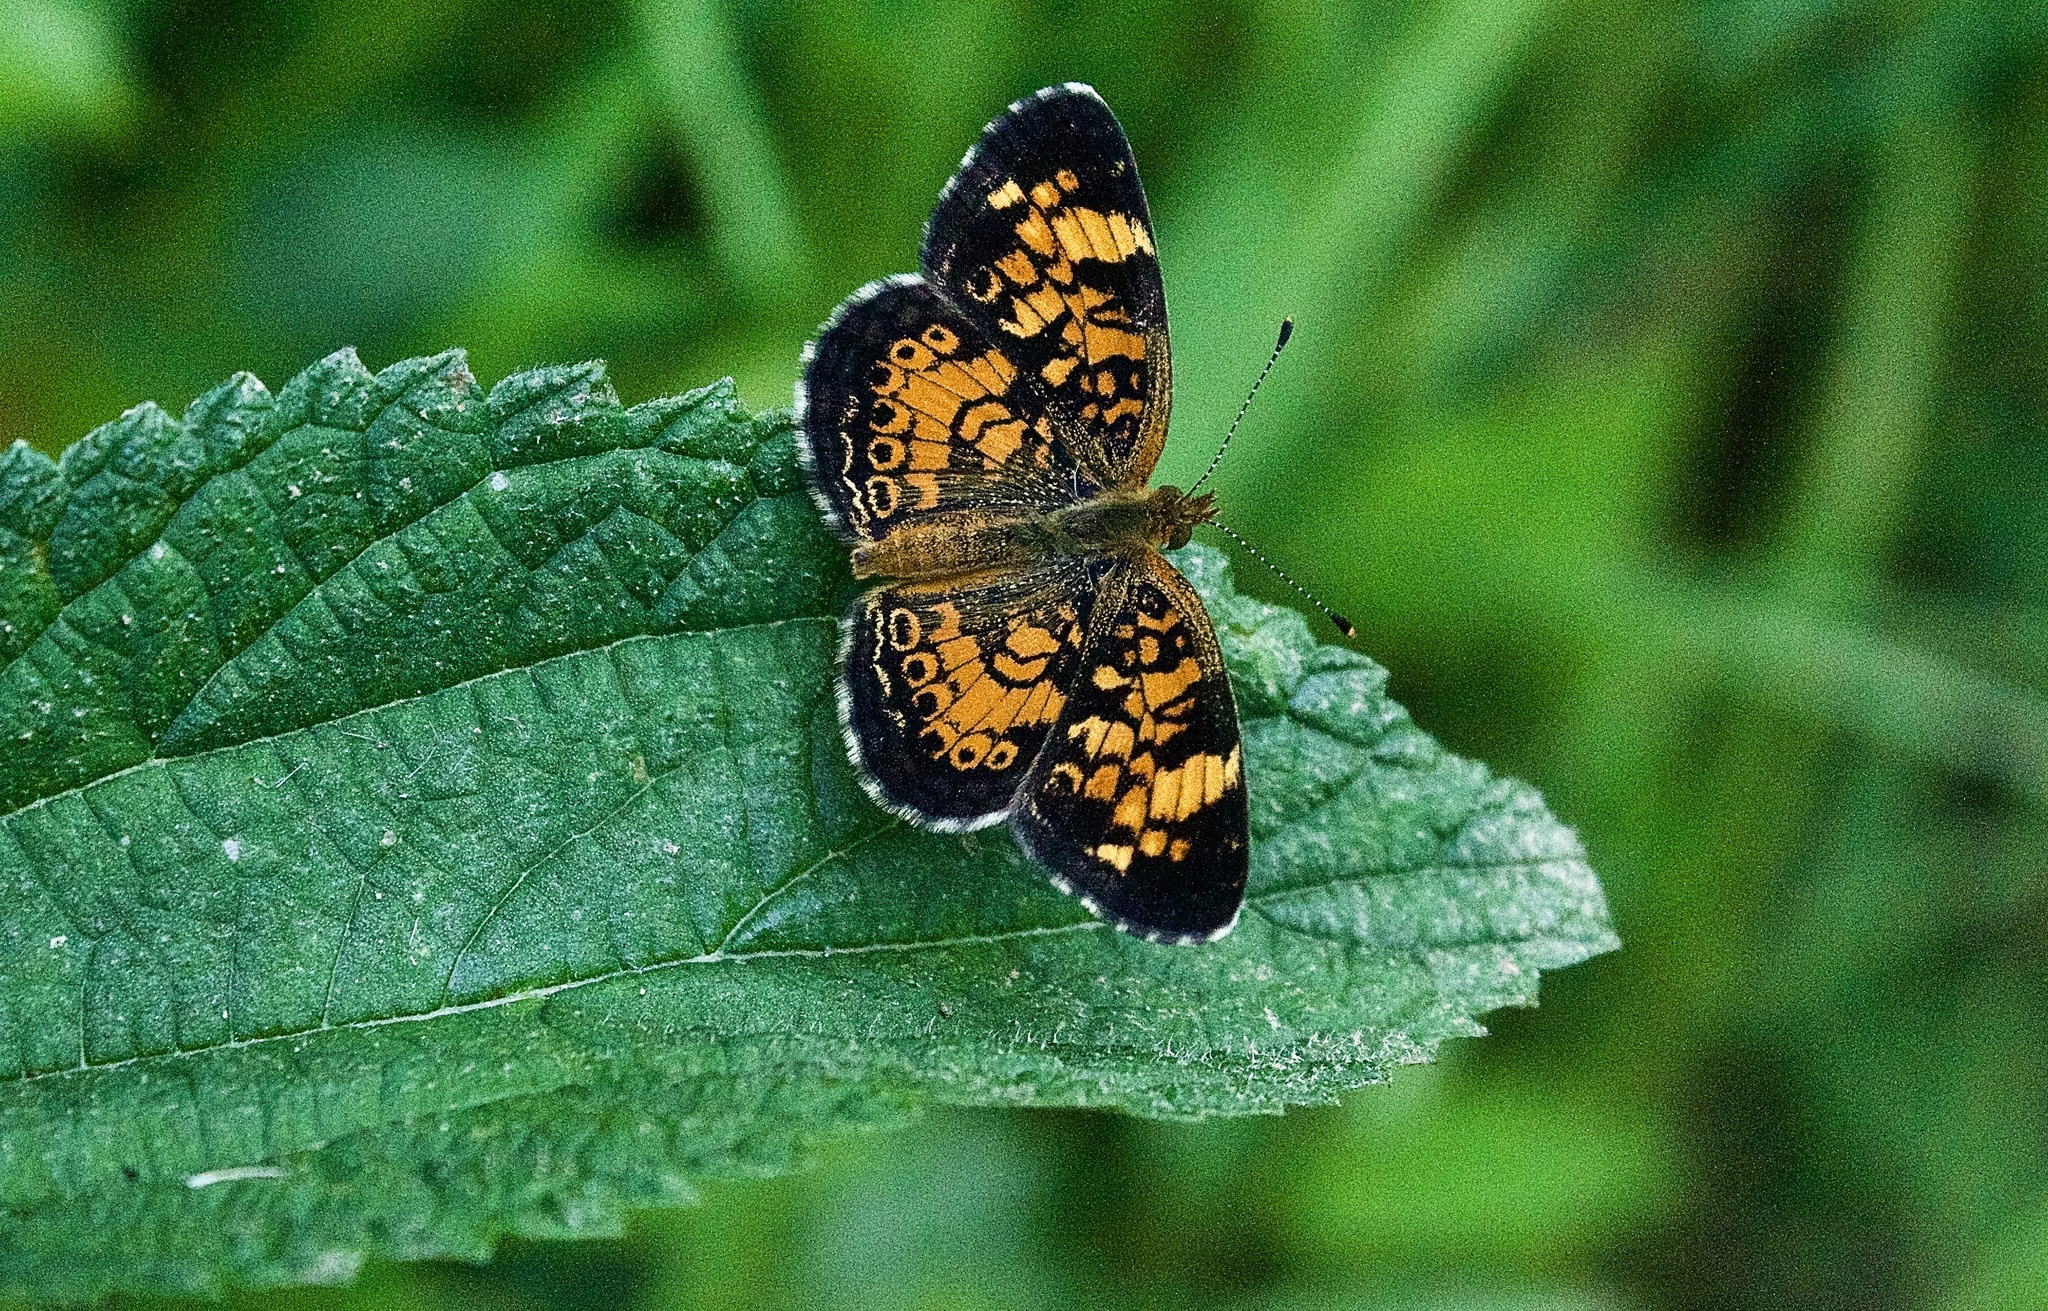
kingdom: Animalia
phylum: Arthropoda
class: Insecta
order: Lepidoptera
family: Nymphalidae
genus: Phyciodes
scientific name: Phyciodes tharos
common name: Pearl crescent
